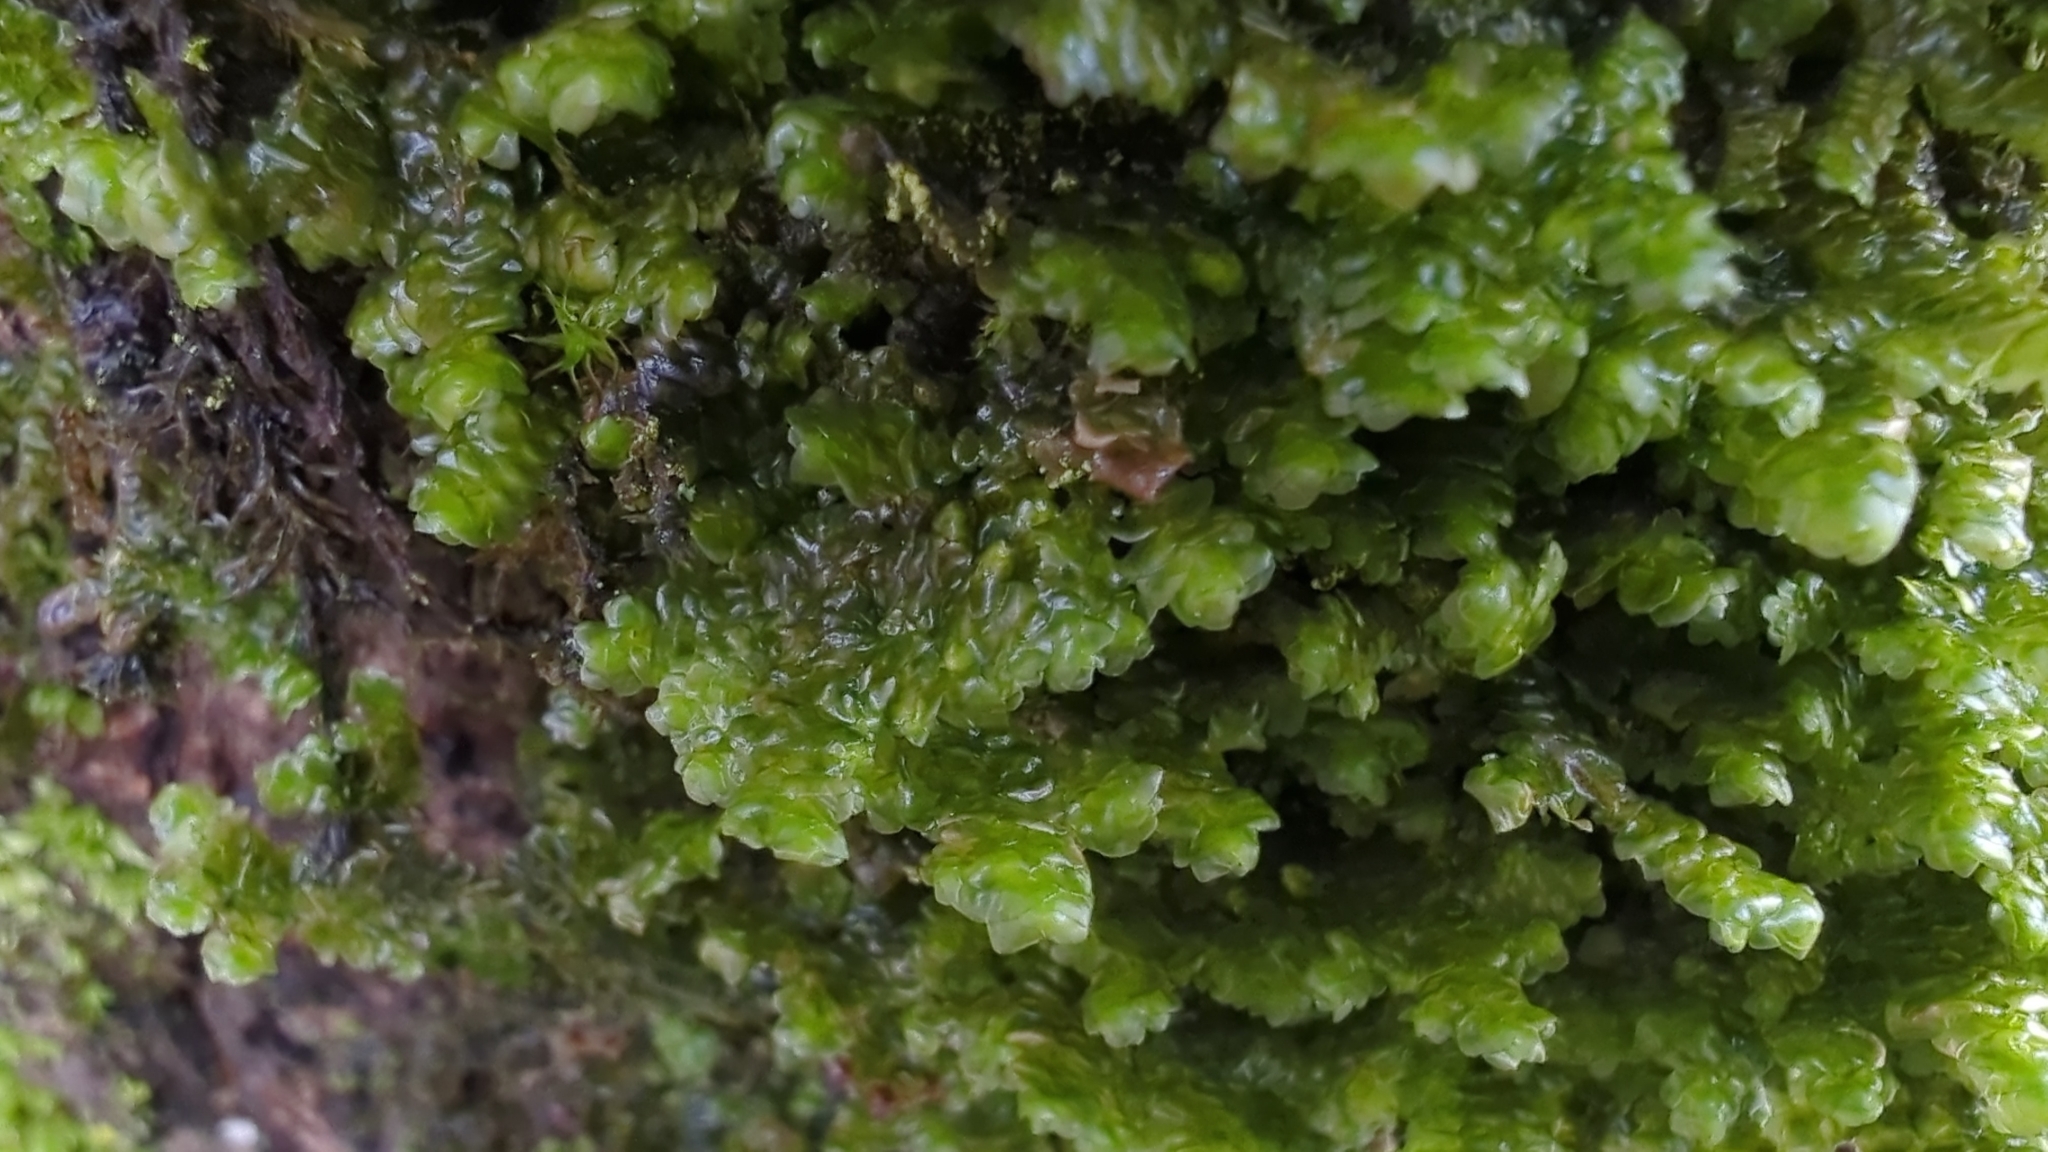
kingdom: Plantae
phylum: Marchantiophyta
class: Jungermanniopsida
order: Porellales
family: Porellaceae
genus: Porella
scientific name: Porella navicularis
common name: Tree ruffle liverwort
